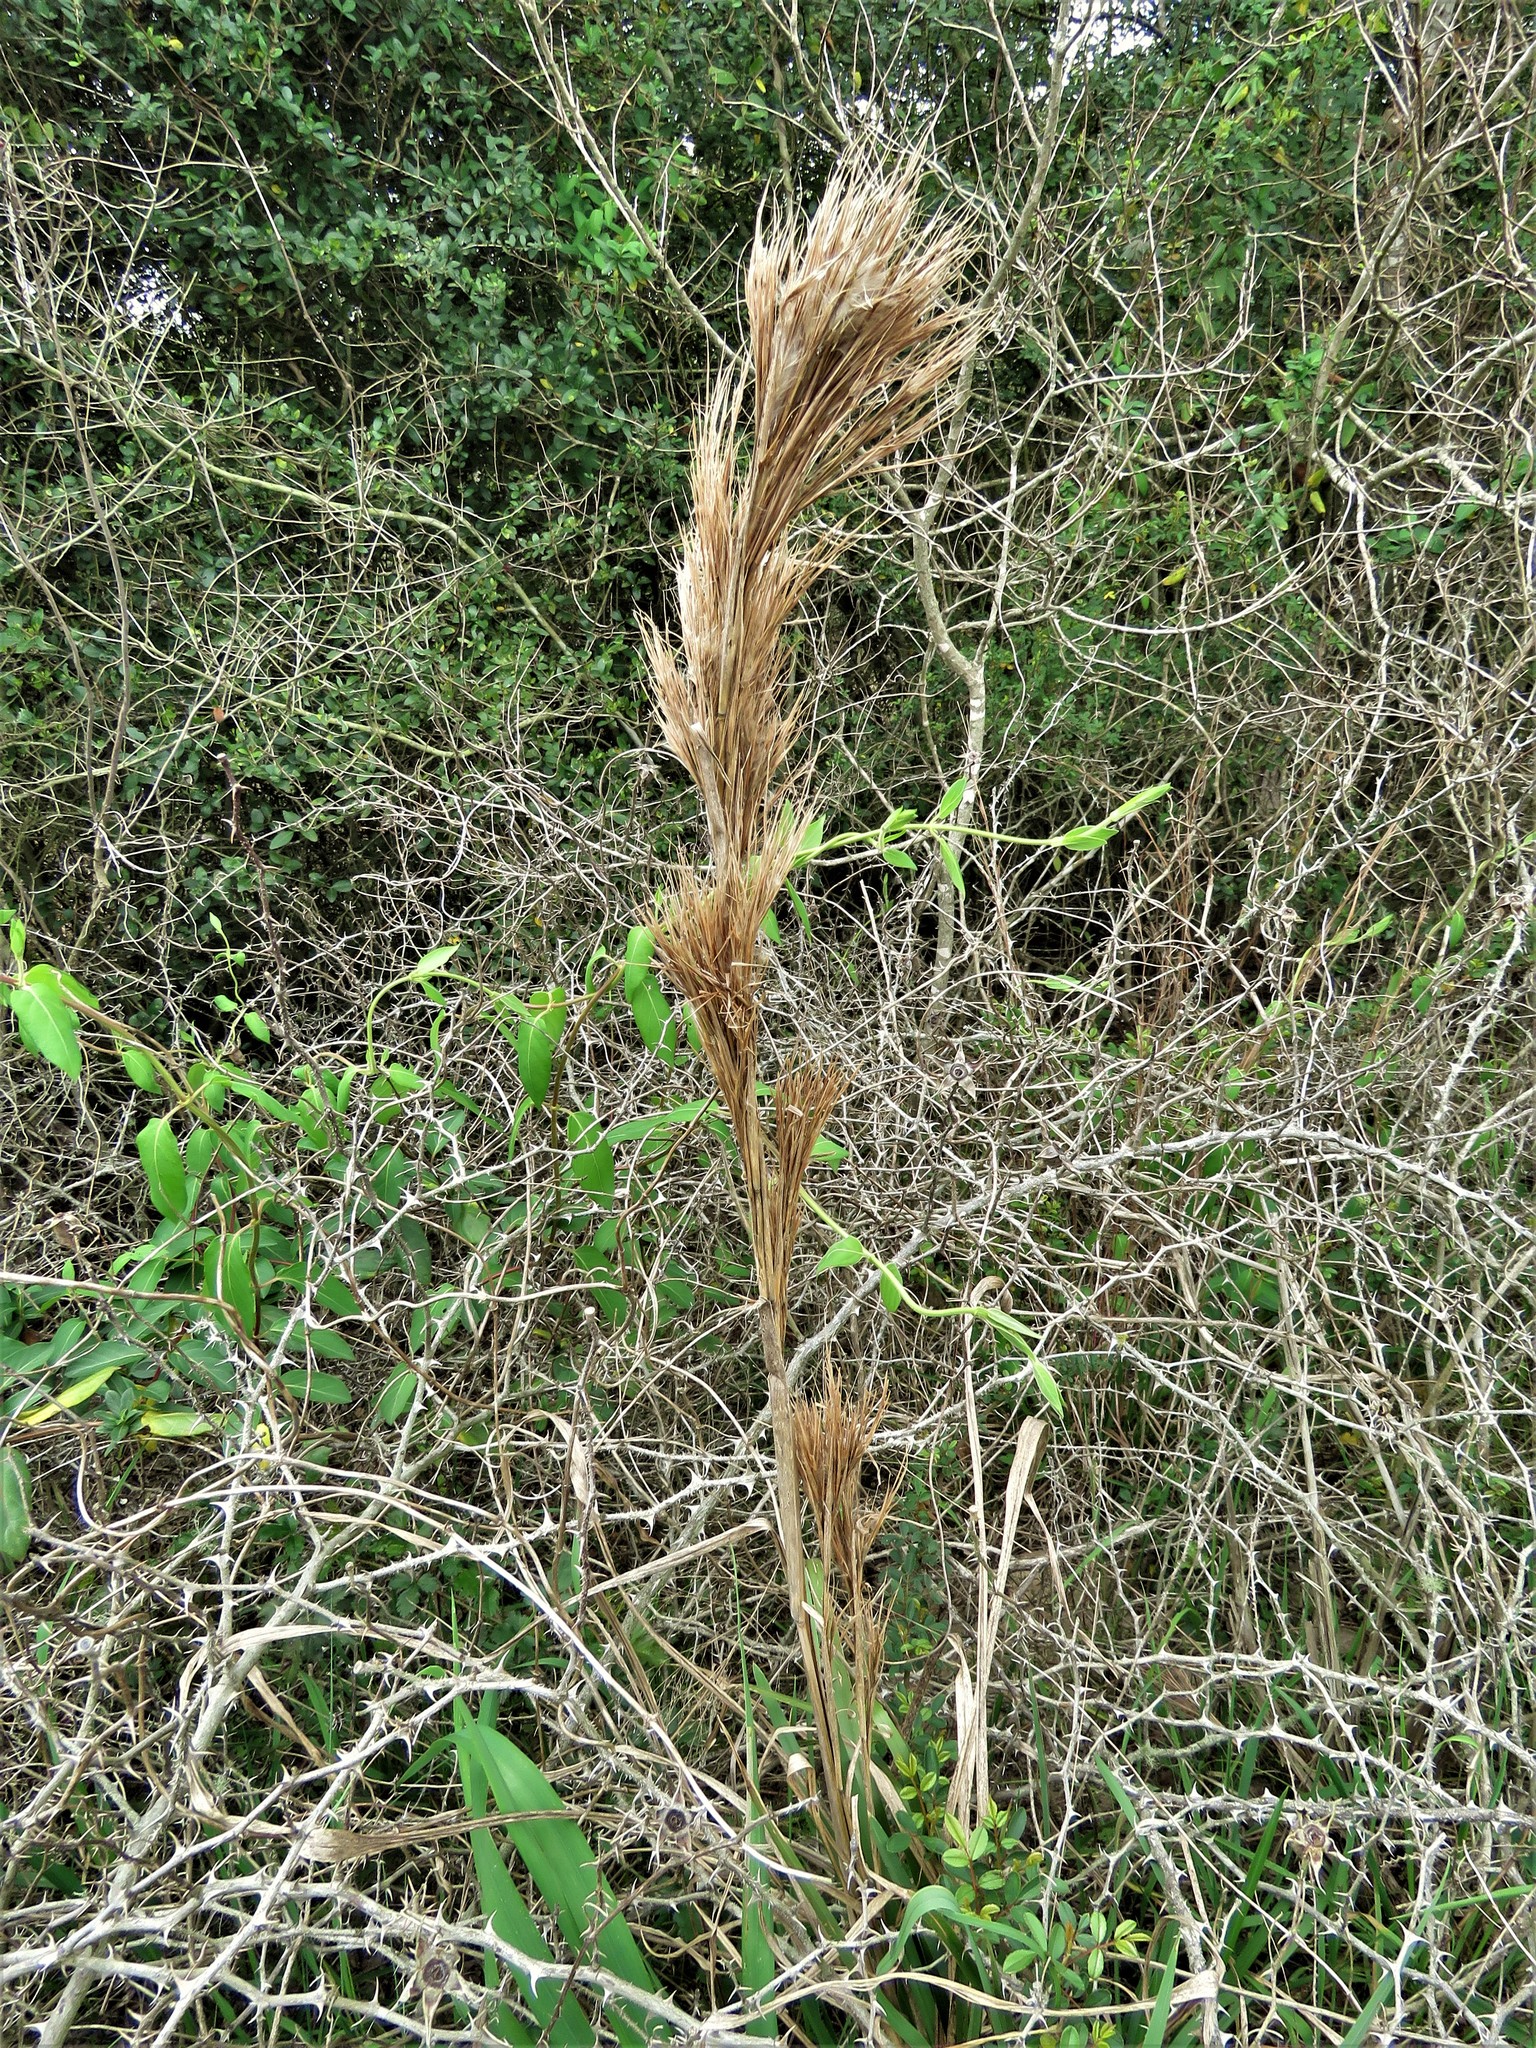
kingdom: Plantae
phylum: Tracheophyta
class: Liliopsida
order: Poales
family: Poaceae
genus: Andropogon
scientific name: Andropogon tenuispatheus
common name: Bushy bluestem
